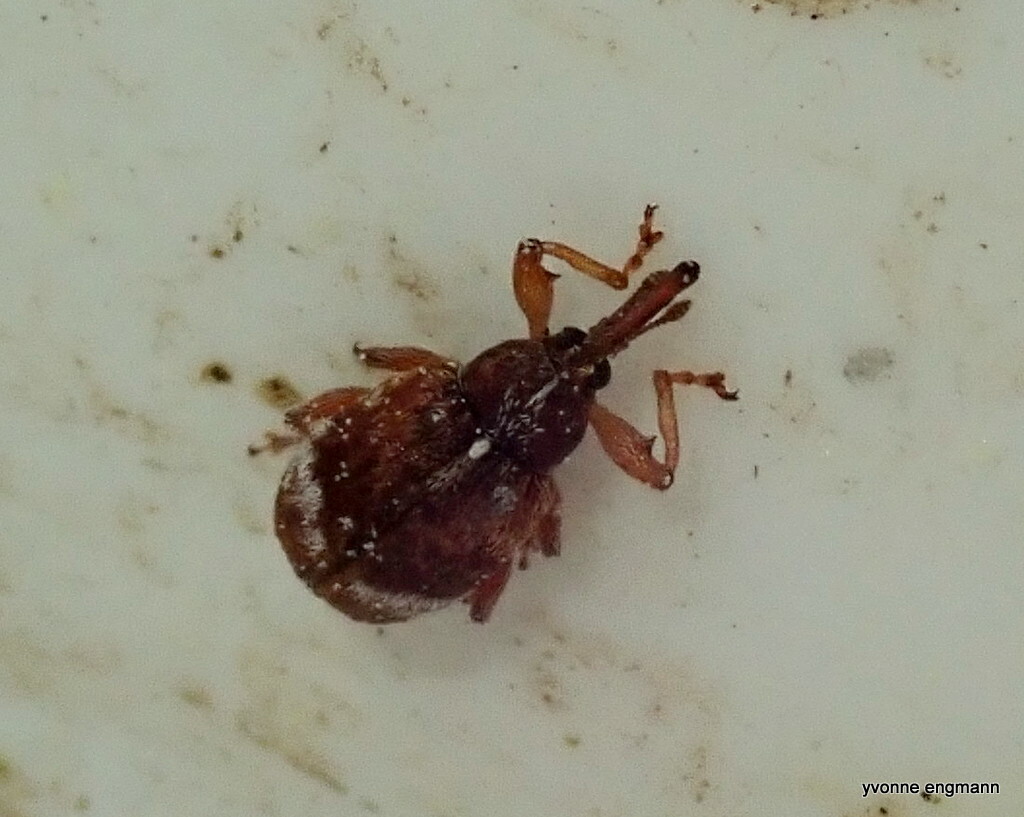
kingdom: Animalia
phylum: Arthropoda
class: Insecta
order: Coleoptera
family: Curculionidae
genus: Anthonomus
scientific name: Anthonomus pedicularius
